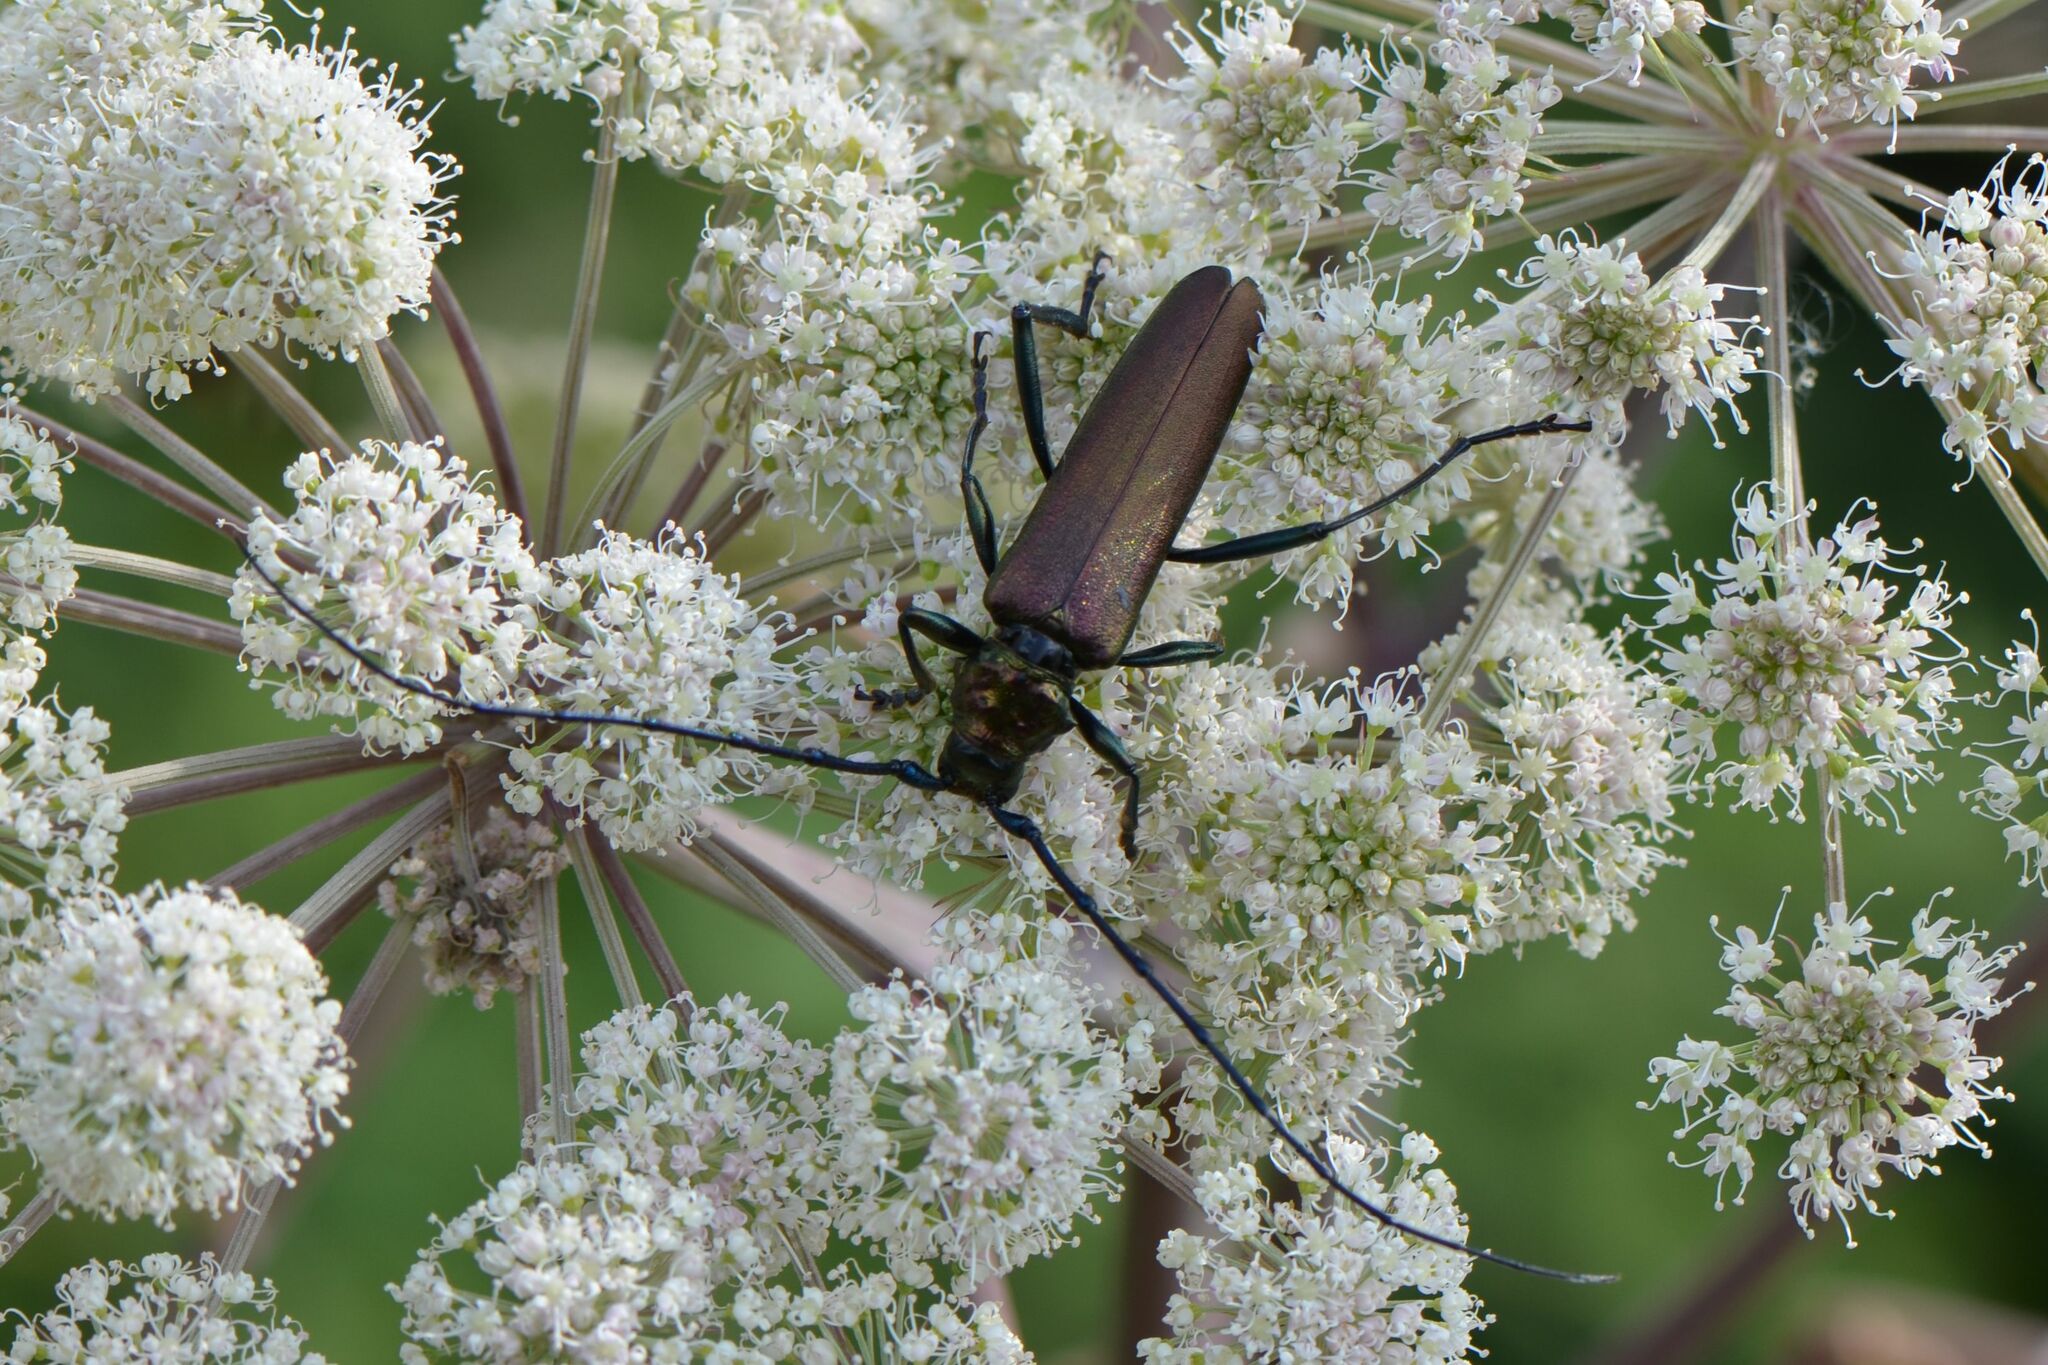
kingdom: Animalia
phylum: Arthropoda
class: Insecta
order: Coleoptera
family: Cerambycidae
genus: Aromia
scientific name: Aromia moschata
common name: Musk beetle
